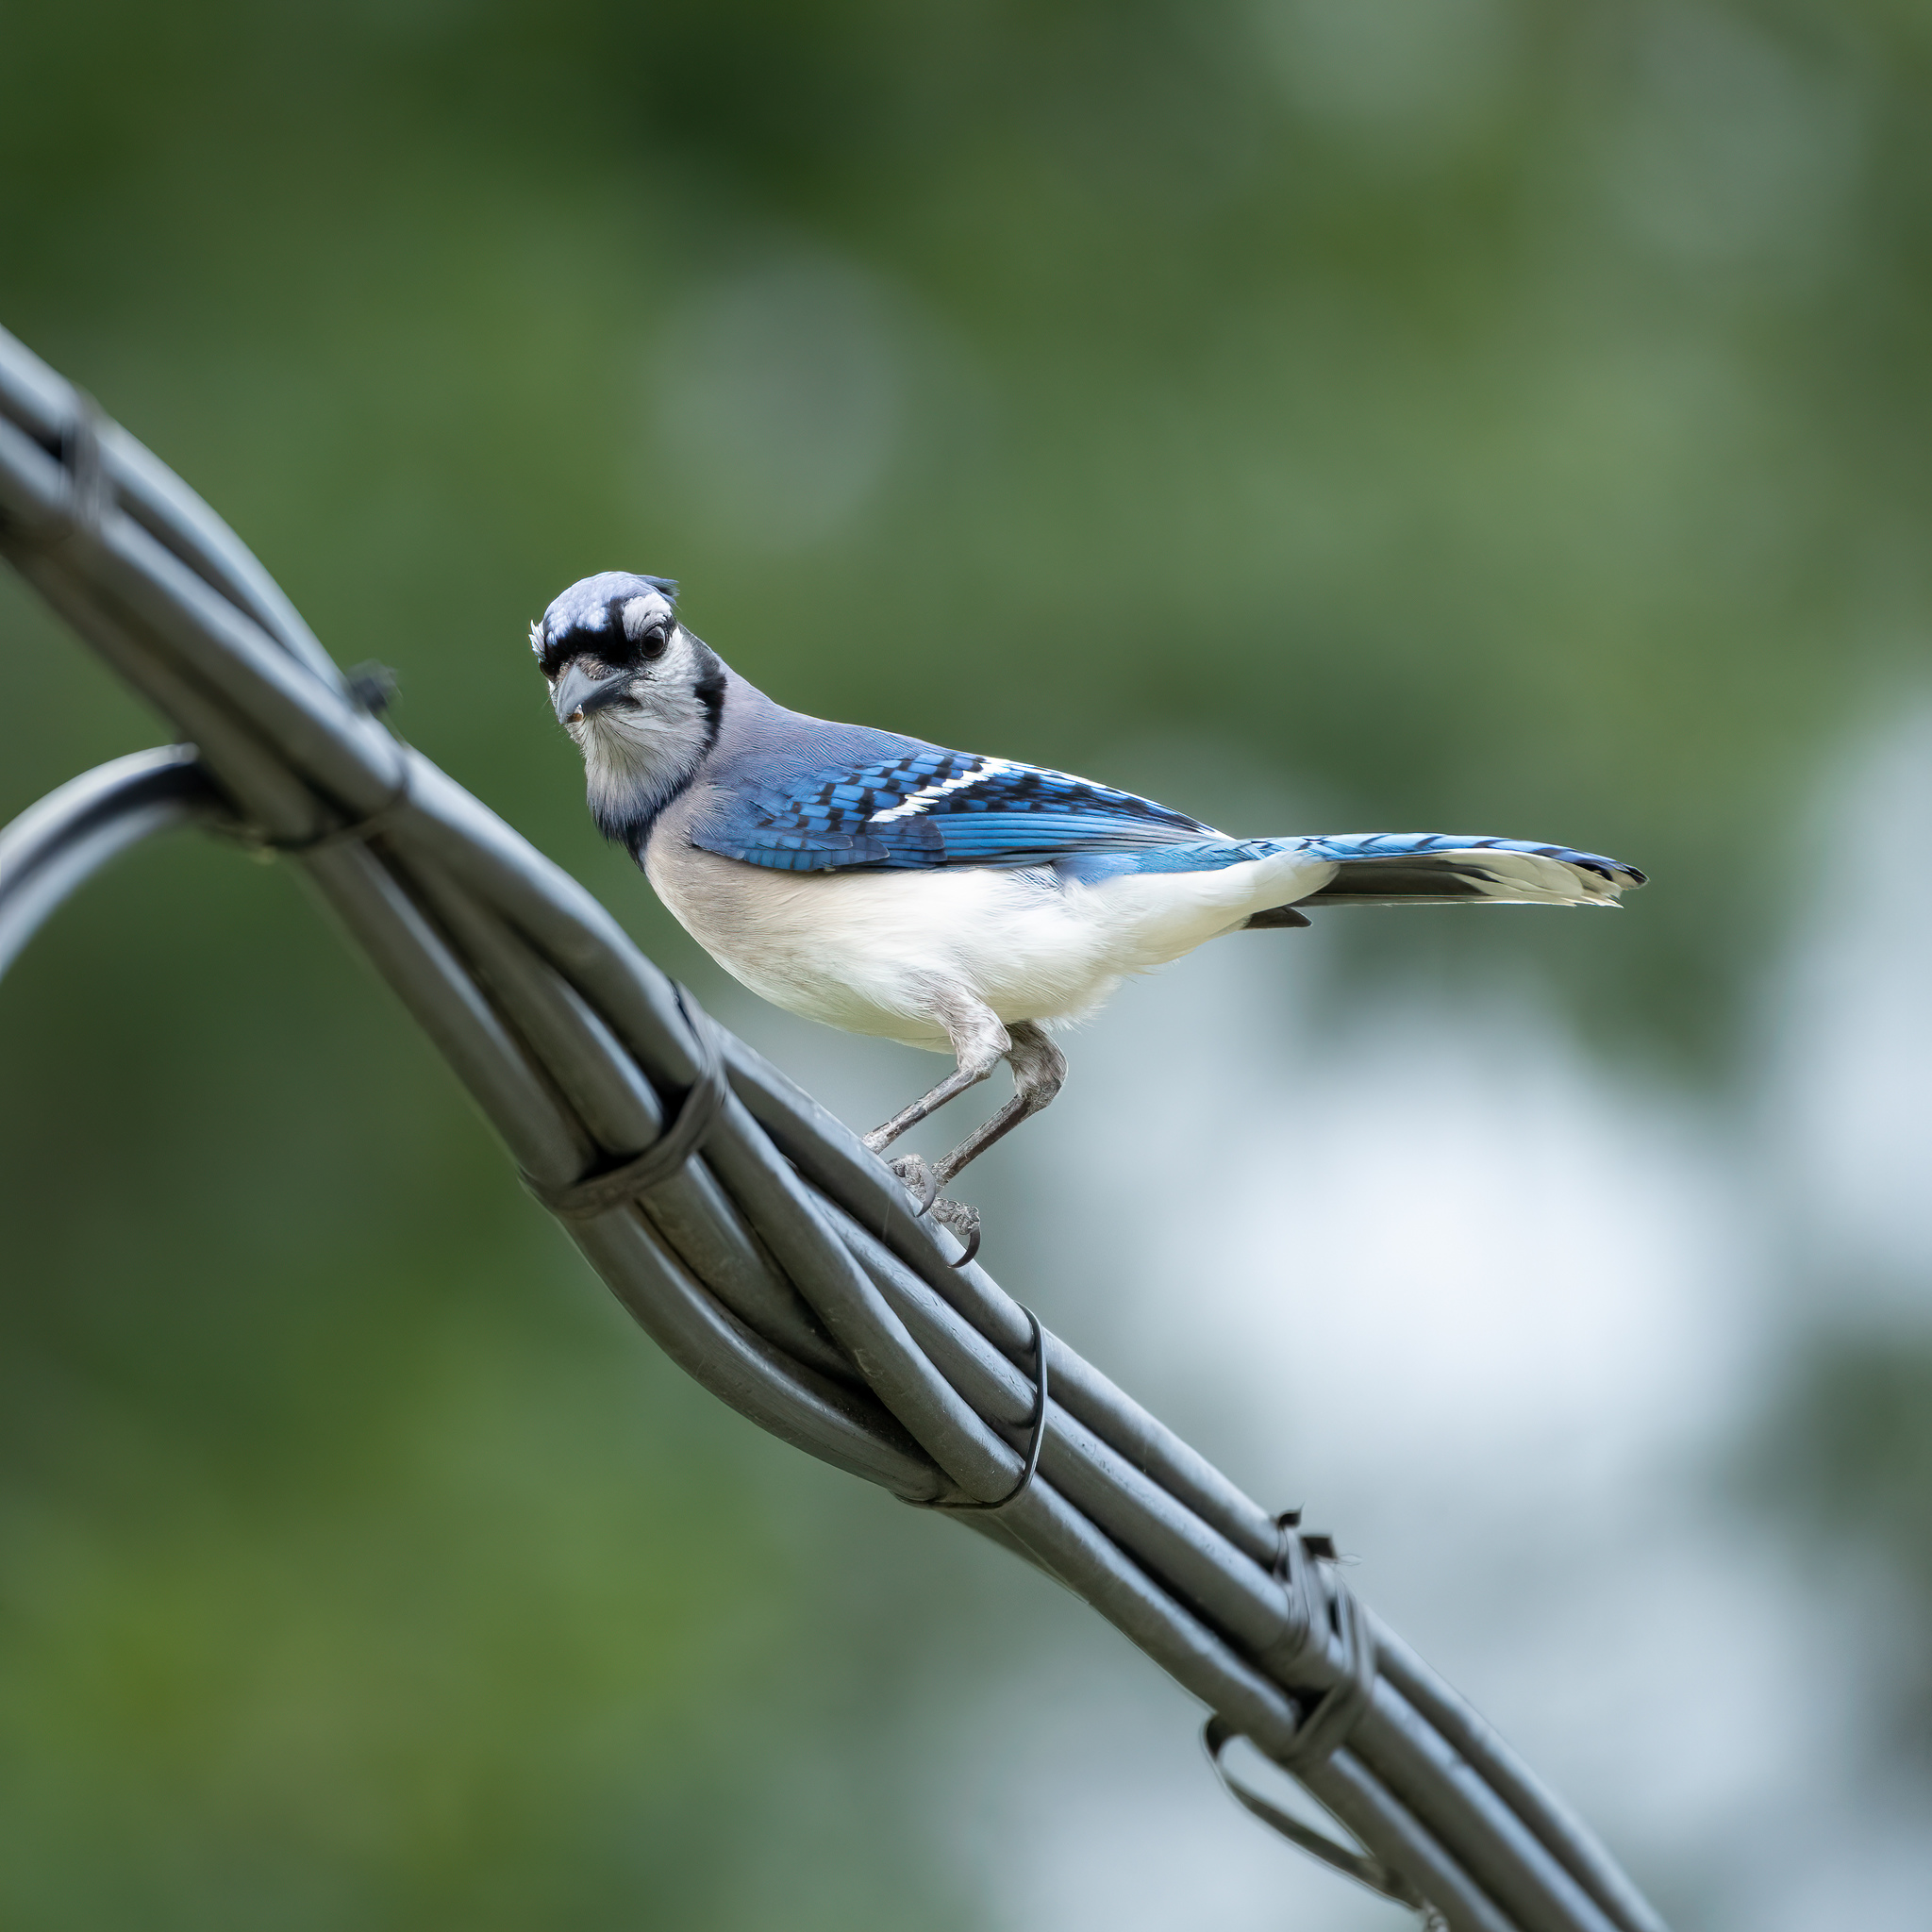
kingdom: Animalia
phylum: Chordata
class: Aves
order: Passeriformes
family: Corvidae
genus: Cyanocitta
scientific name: Cyanocitta cristata
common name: Blue jay
